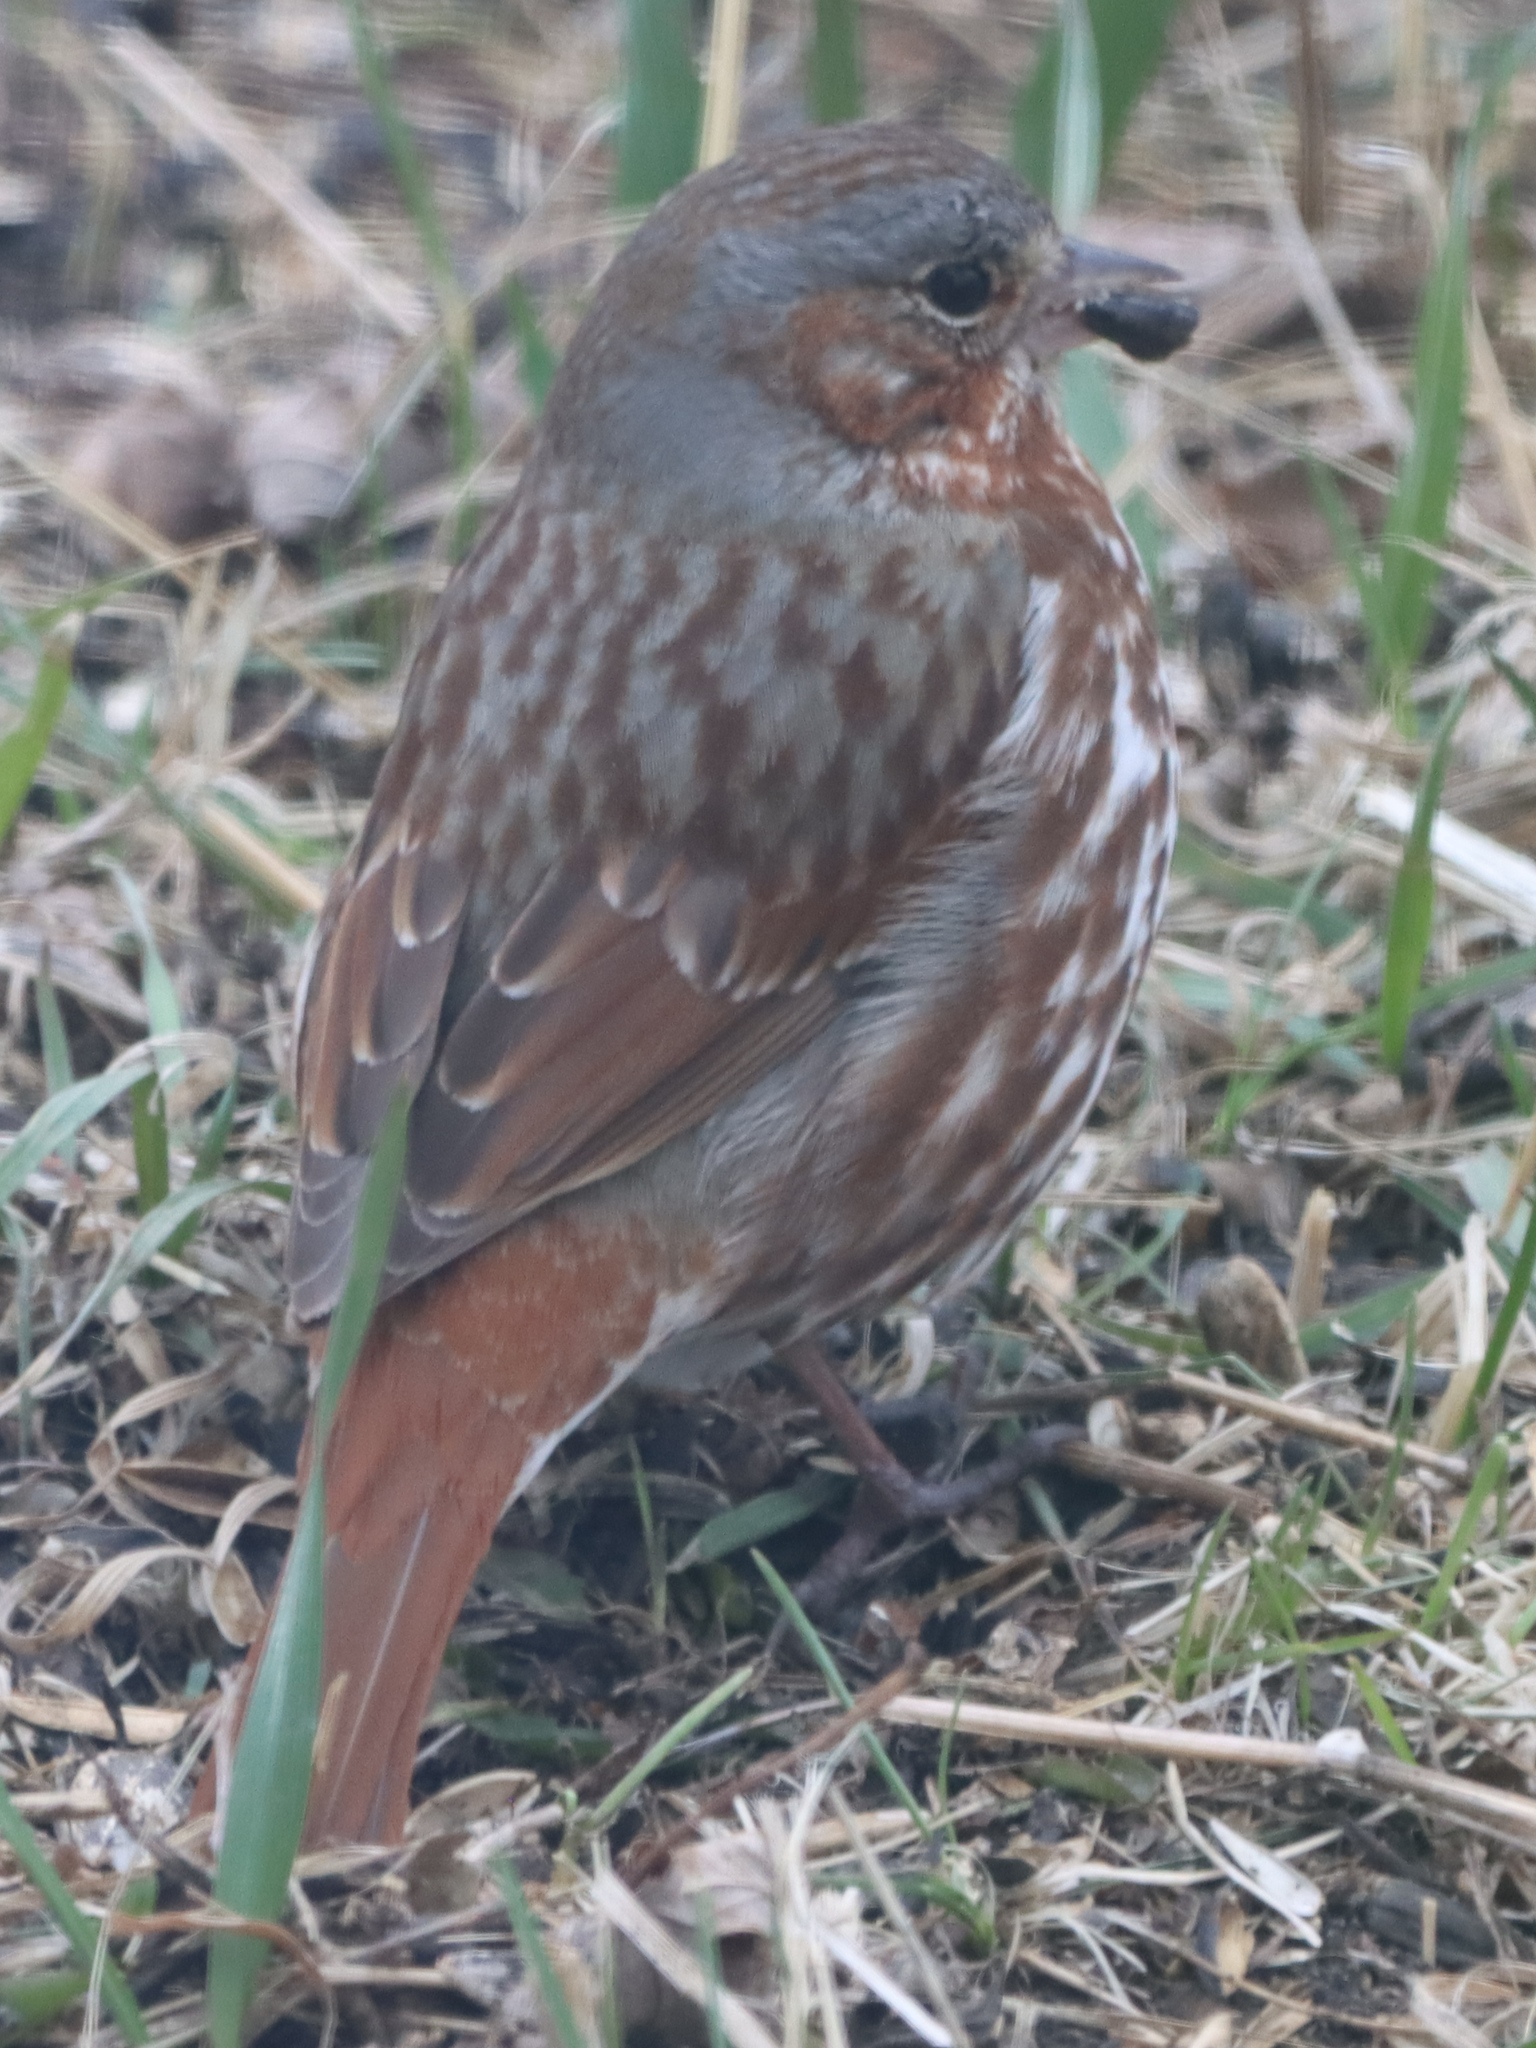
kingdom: Animalia
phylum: Chordata
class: Aves
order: Passeriformes
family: Passerellidae
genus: Passerella
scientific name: Passerella iliaca
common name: Fox sparrow
